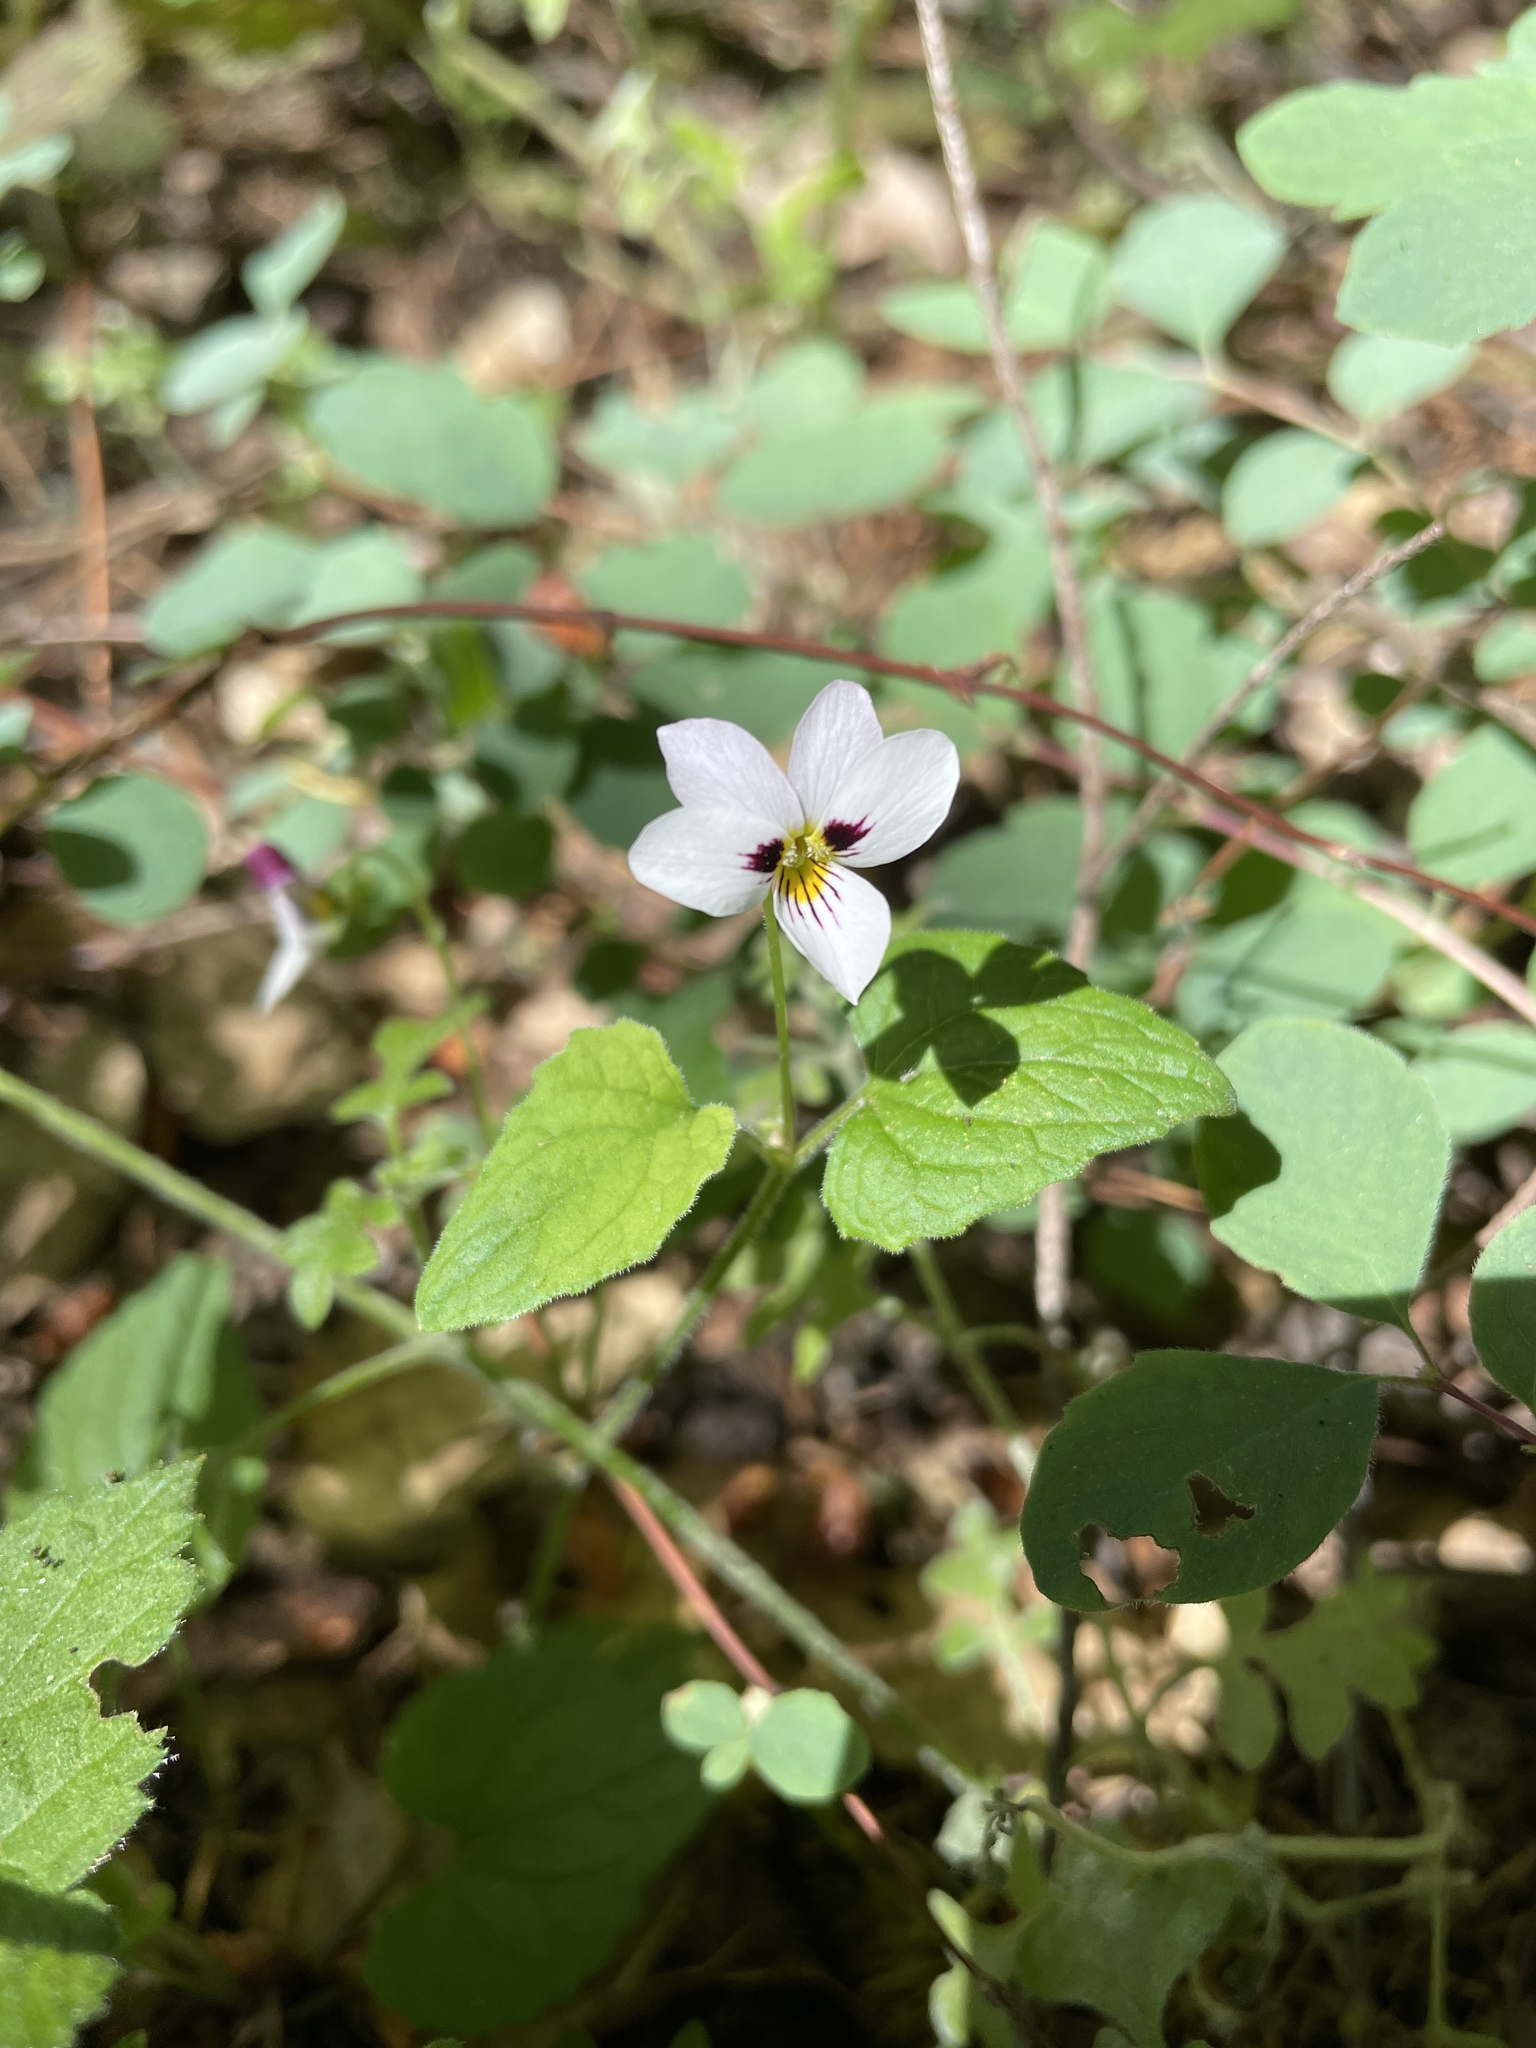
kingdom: Plantae
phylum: Tracheophyta
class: Magnoliopsida
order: Malpighiales
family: Violaceae
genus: Viola
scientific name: Viola ocellata
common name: Western heart's ease
